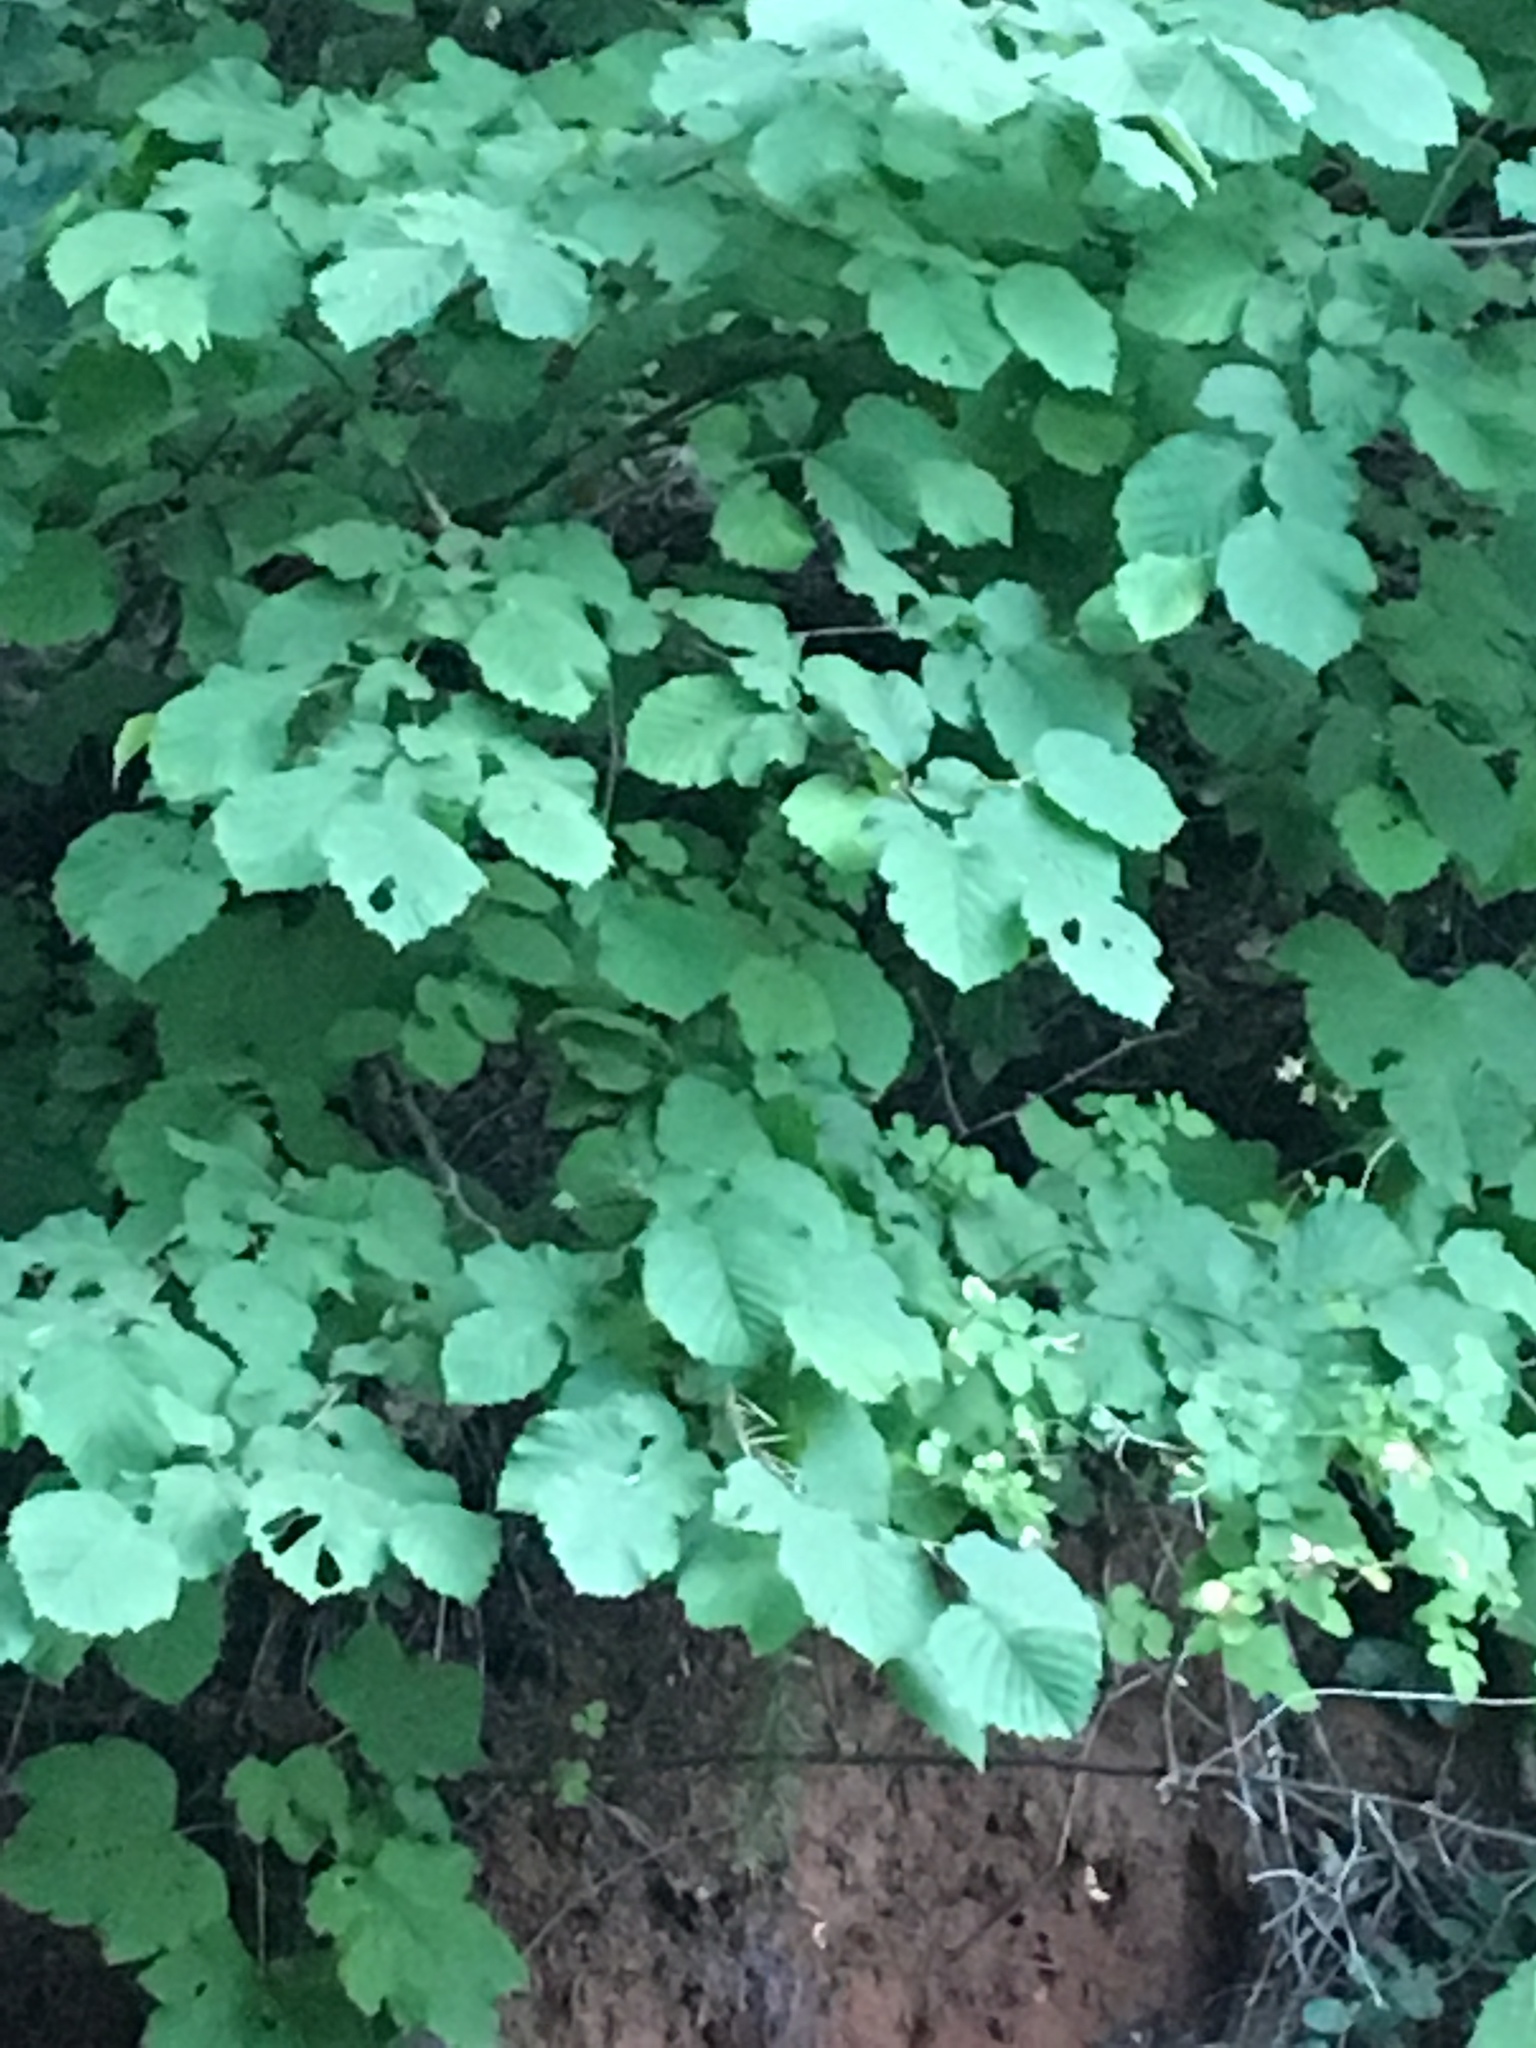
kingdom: Plantae
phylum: Tracheophyta
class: Magnoliopsida
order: Fagales
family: Betulaceae
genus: Corylus
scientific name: Corylus cornuta
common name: Beaked hazel
